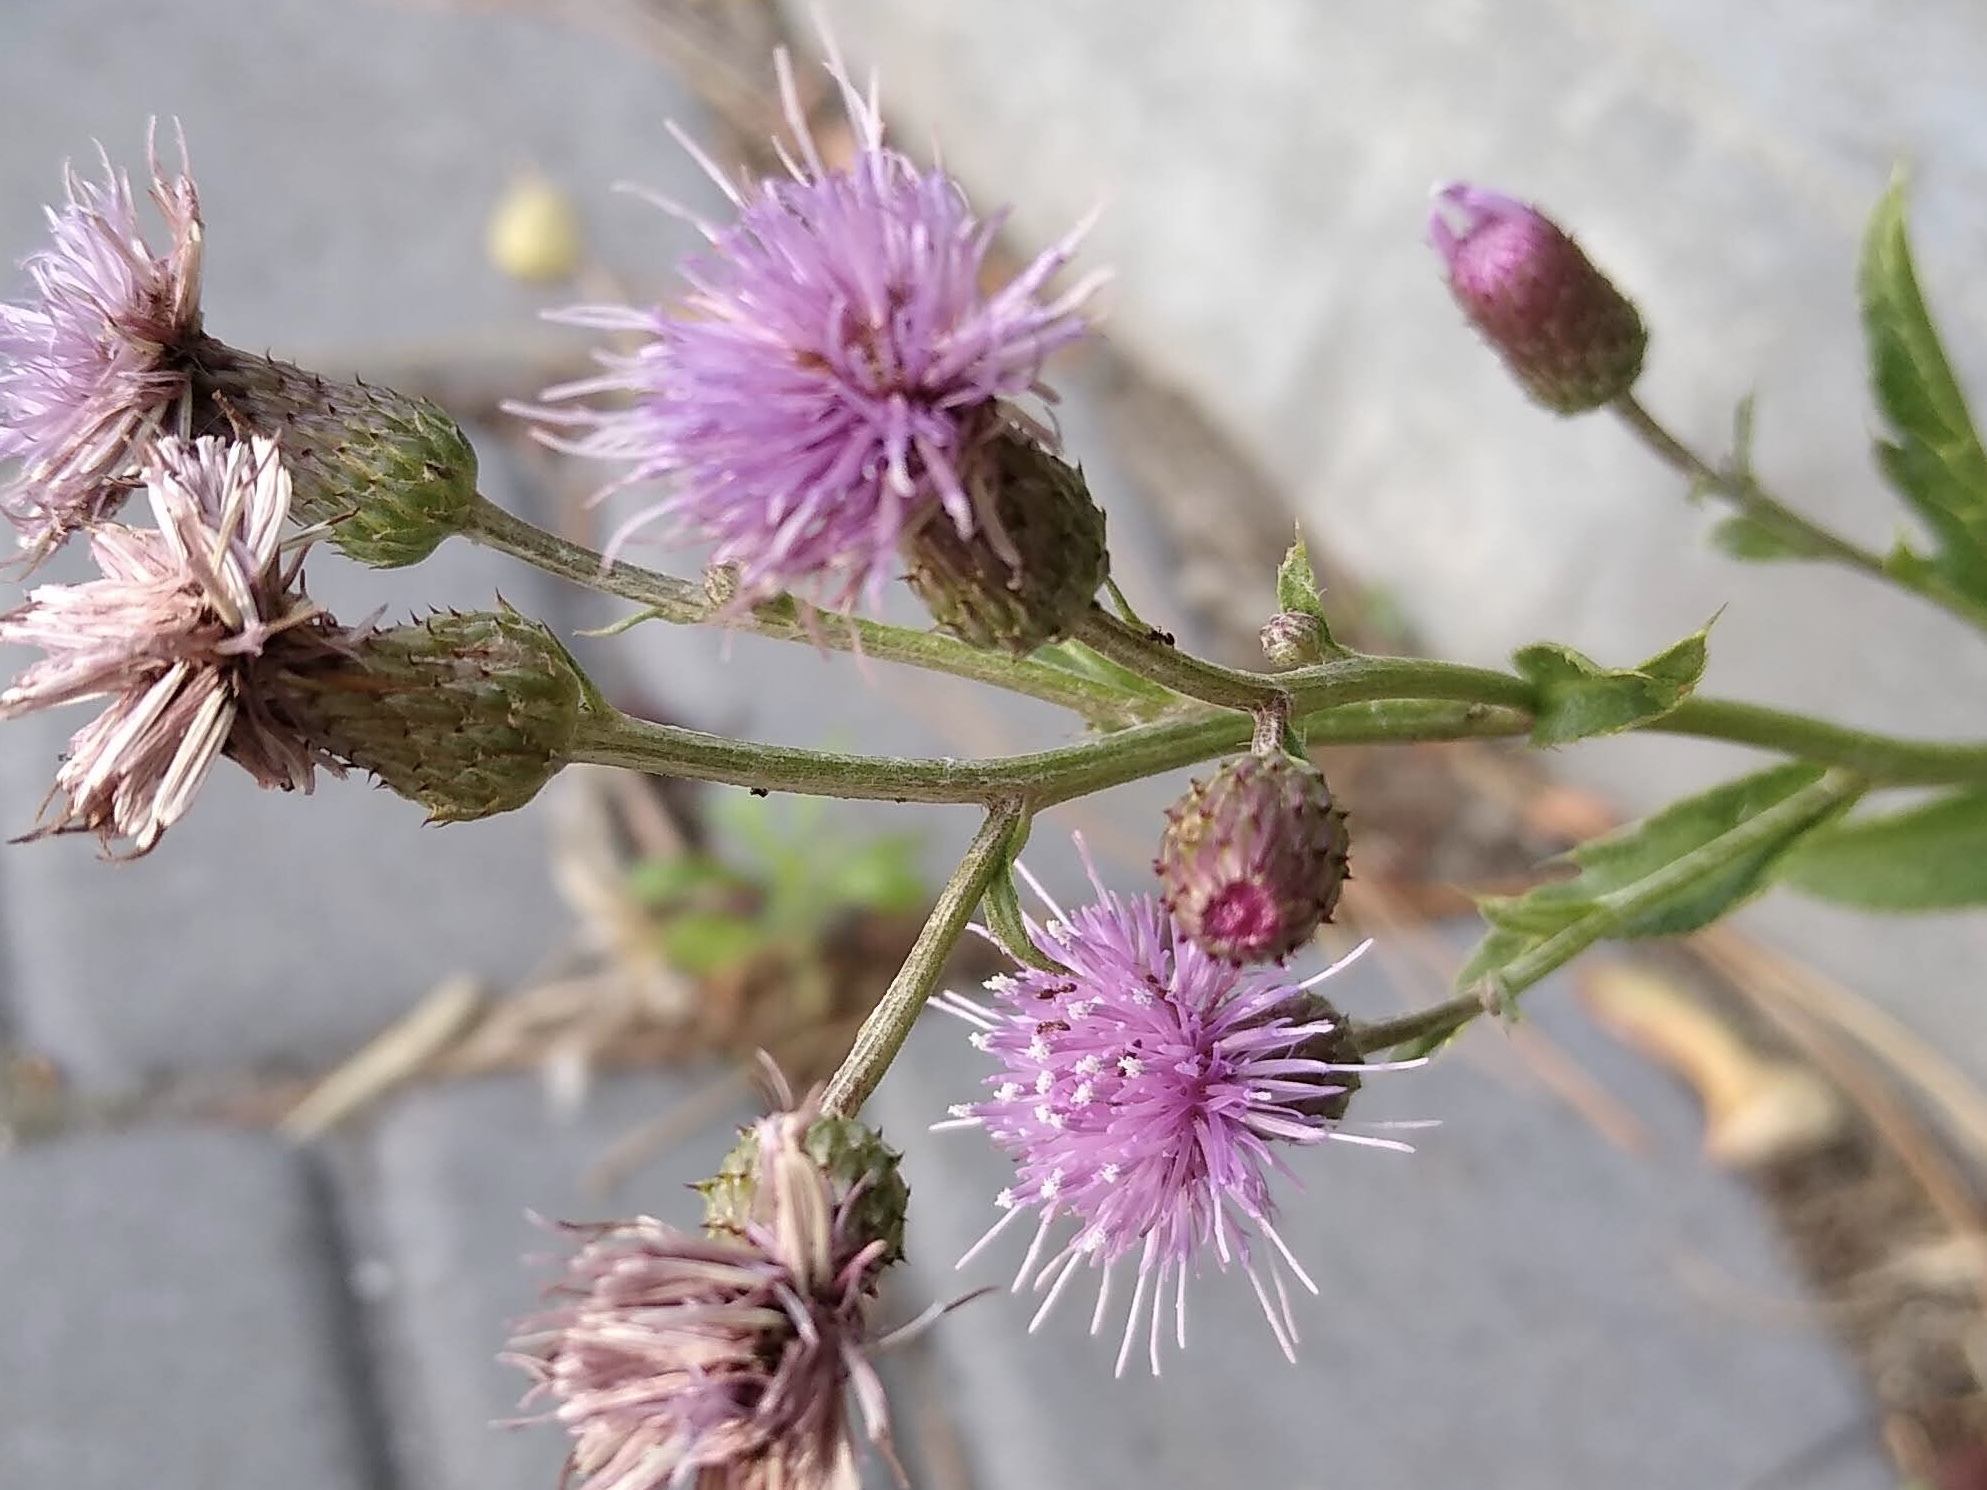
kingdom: Plantae
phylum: Tracheophyta
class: Magnoliopsida
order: Asterales
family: Asteraceae
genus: Cirsium
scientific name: Cirsium arvense
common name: Creeping thistle
